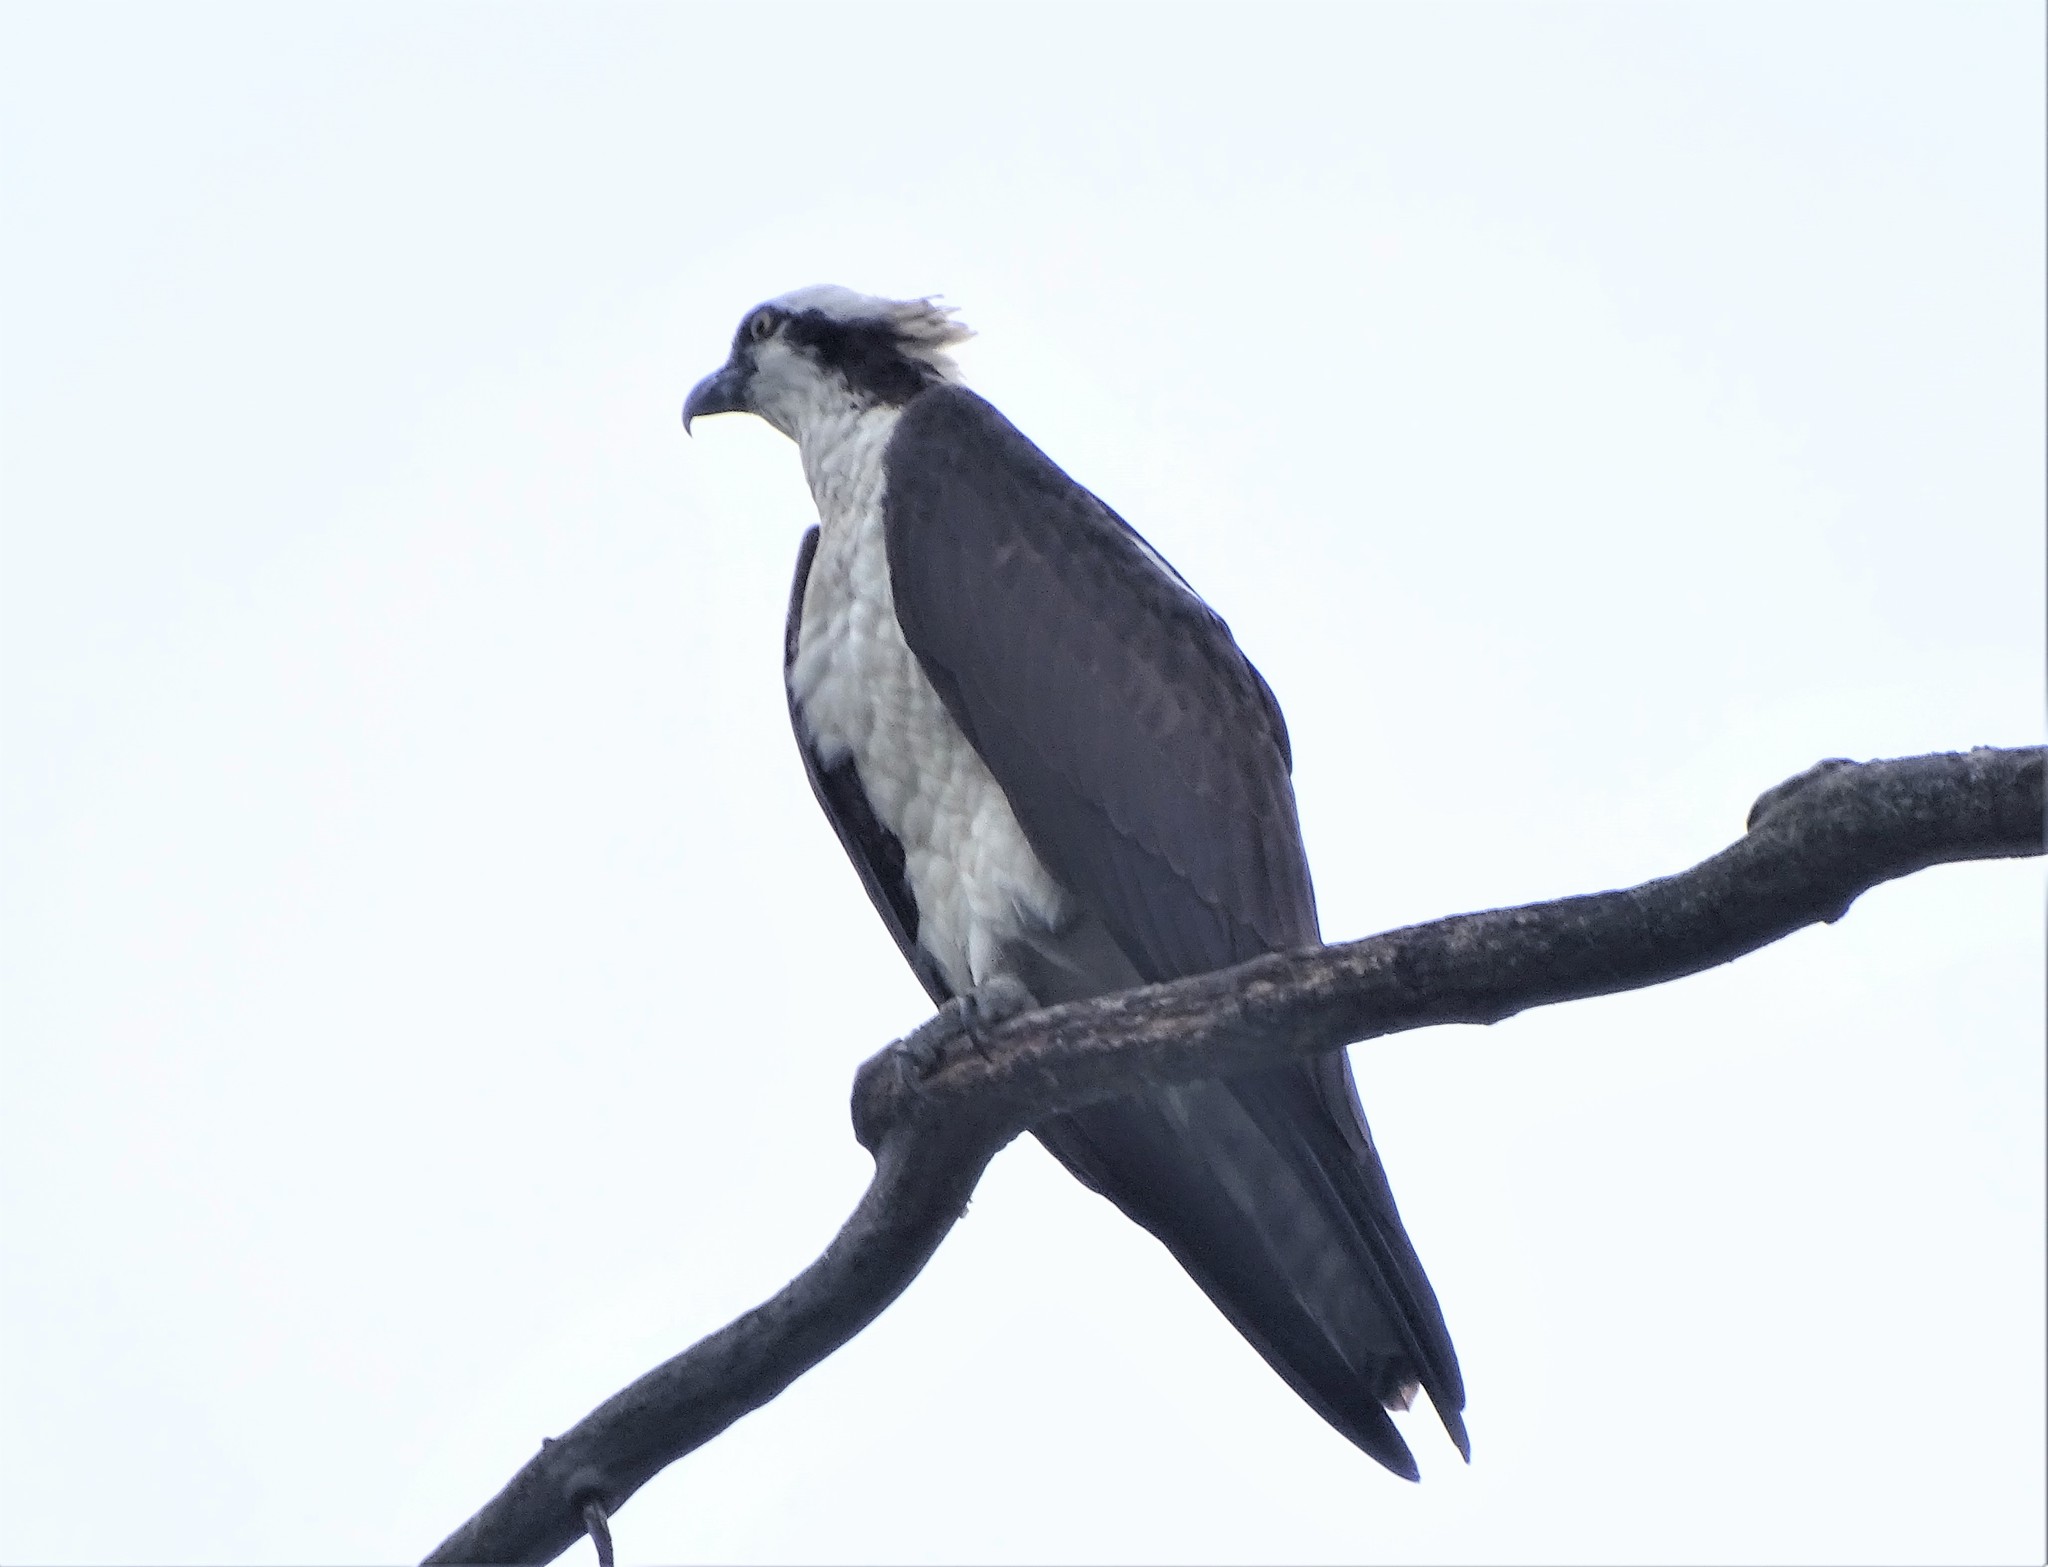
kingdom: Animalia
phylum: Chordata
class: Aves
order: Accipitriformes
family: Pandionidae
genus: Pandion
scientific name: Pandion haliaetus
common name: Osprey
